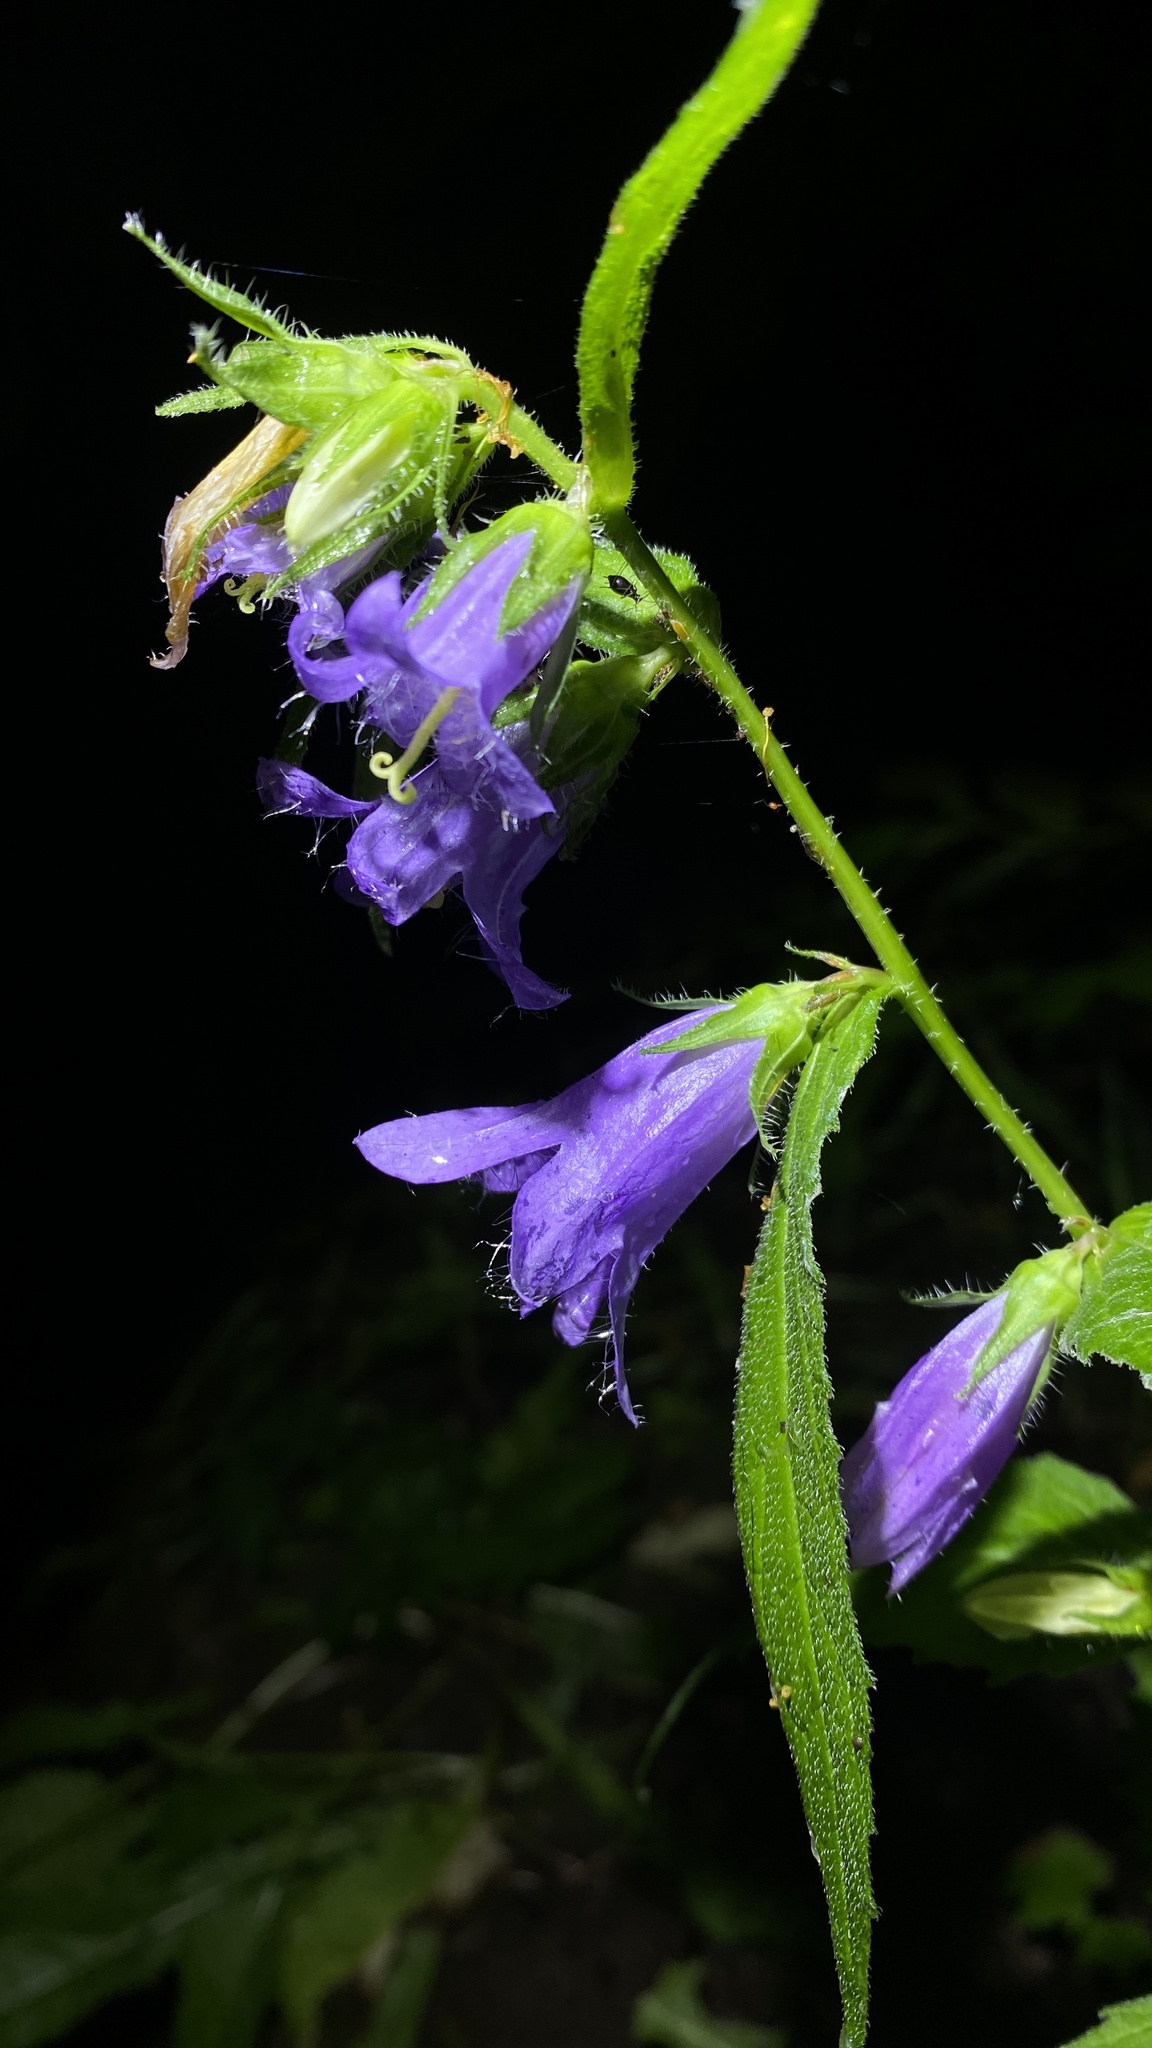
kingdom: Plantae
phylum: Tracheophyta
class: Magnoliopsida
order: Asterales
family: Campanulaceae
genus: Campanula
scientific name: Campanula trachelium
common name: Nettle-leaved bellflower
